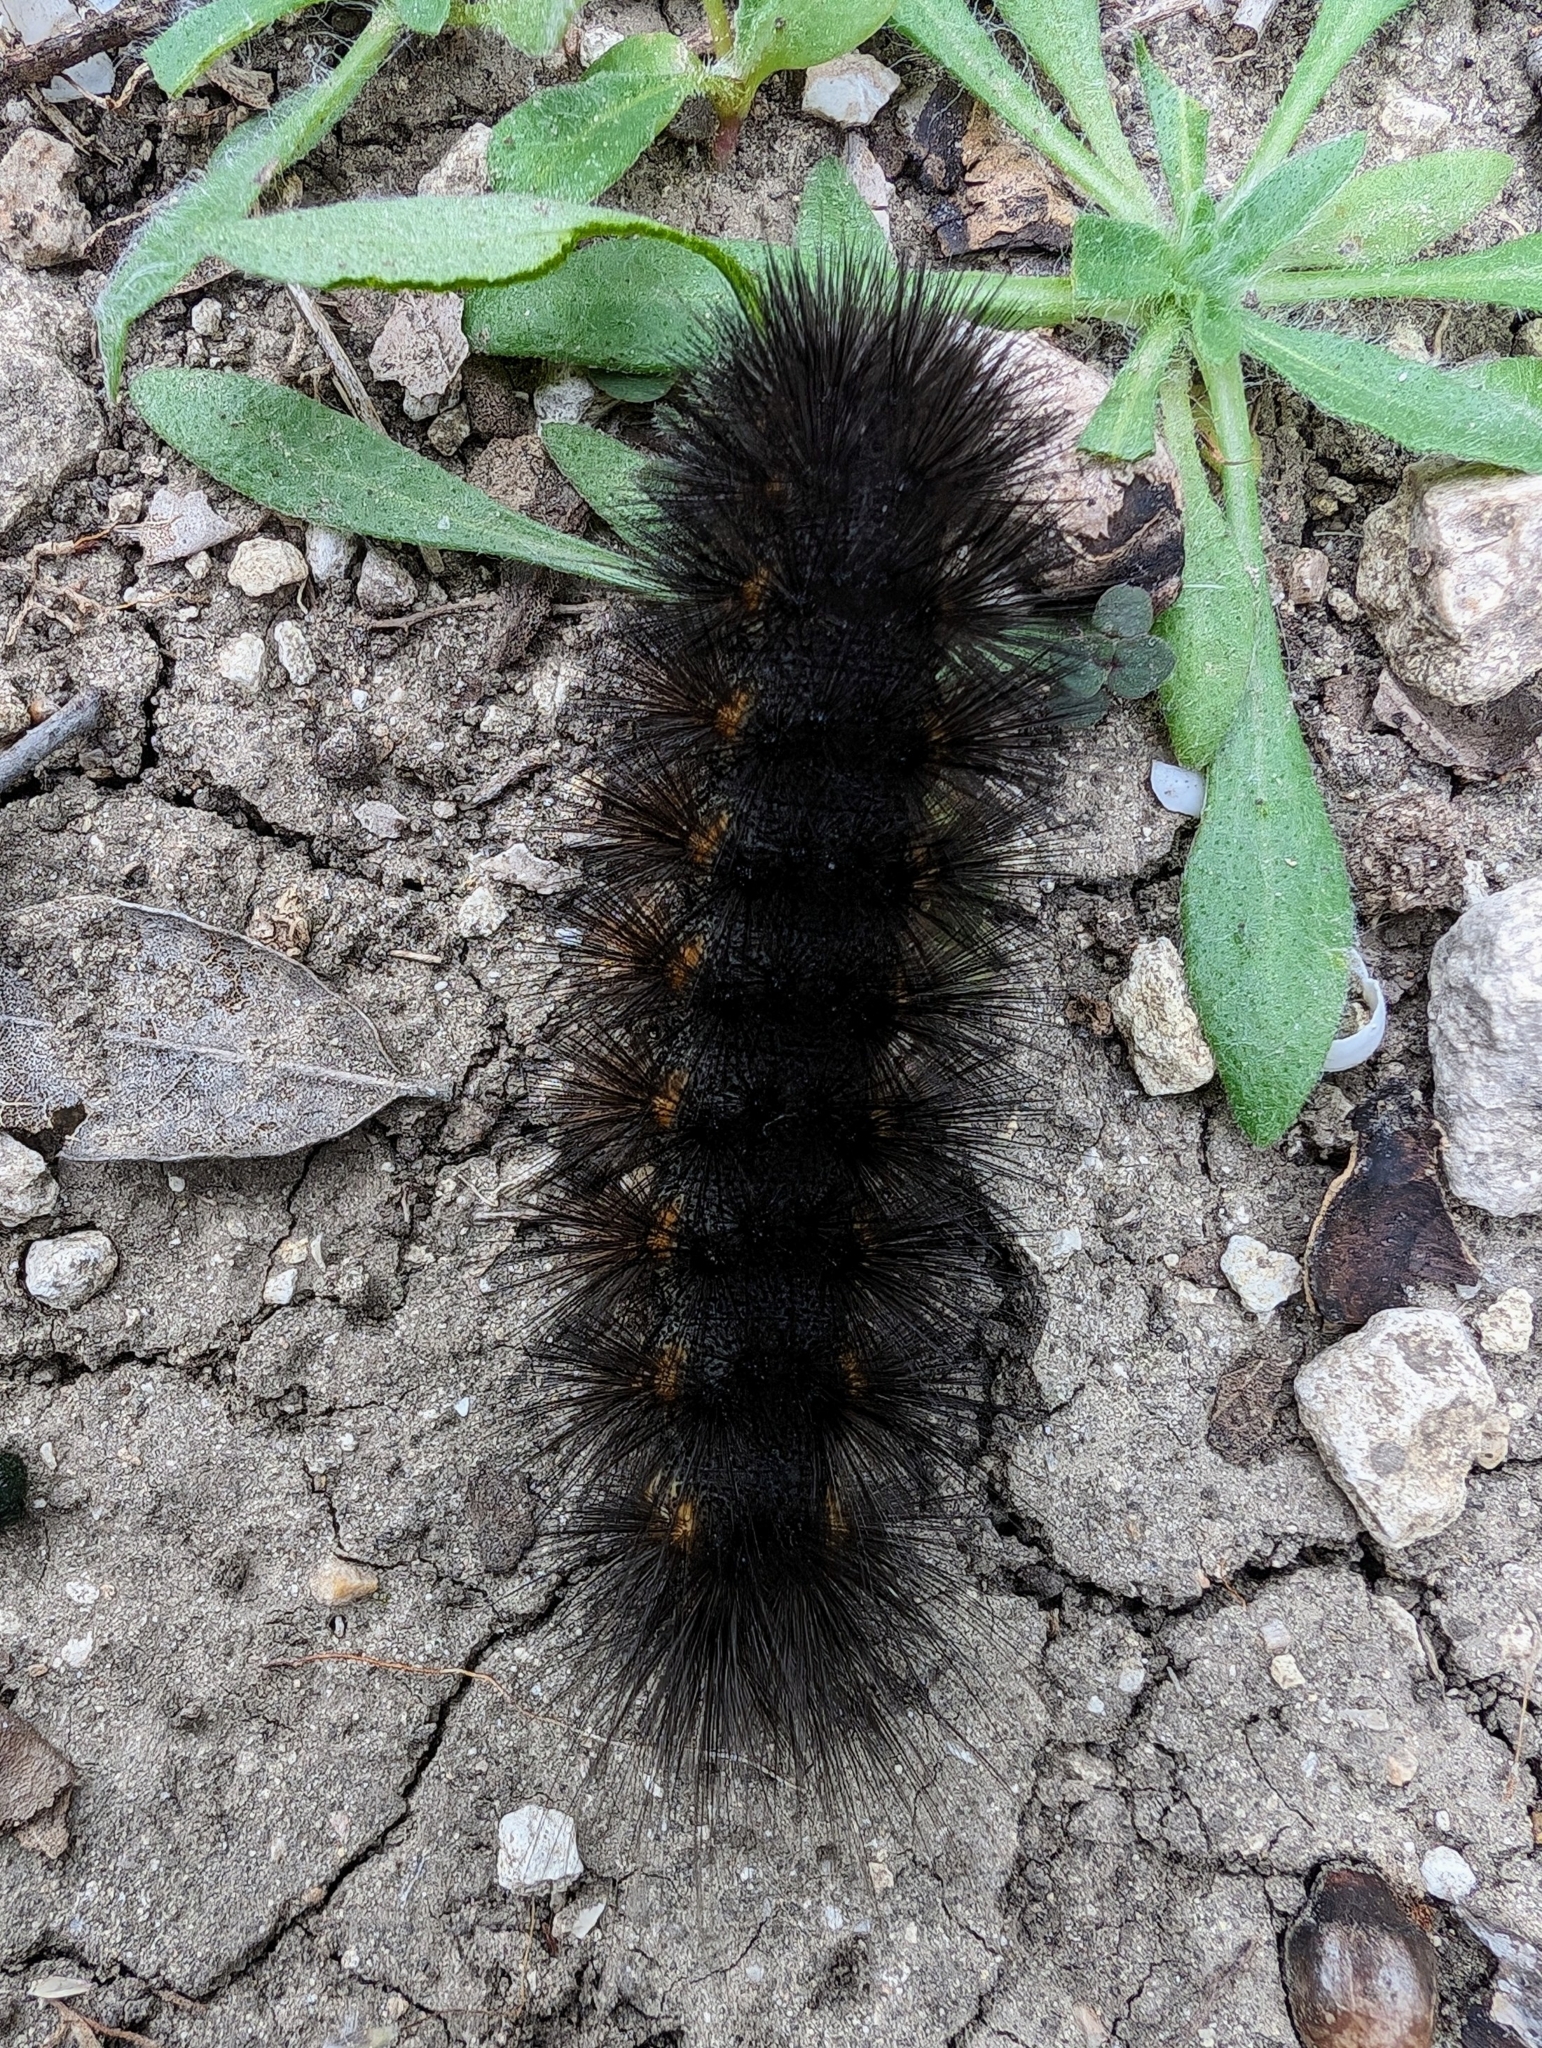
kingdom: Animalia
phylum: Arthropoda
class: Insecta
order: Lepidoptera
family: Erebidae
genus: Estigmene
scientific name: Estigmene acrea
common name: Salt marsh moth
